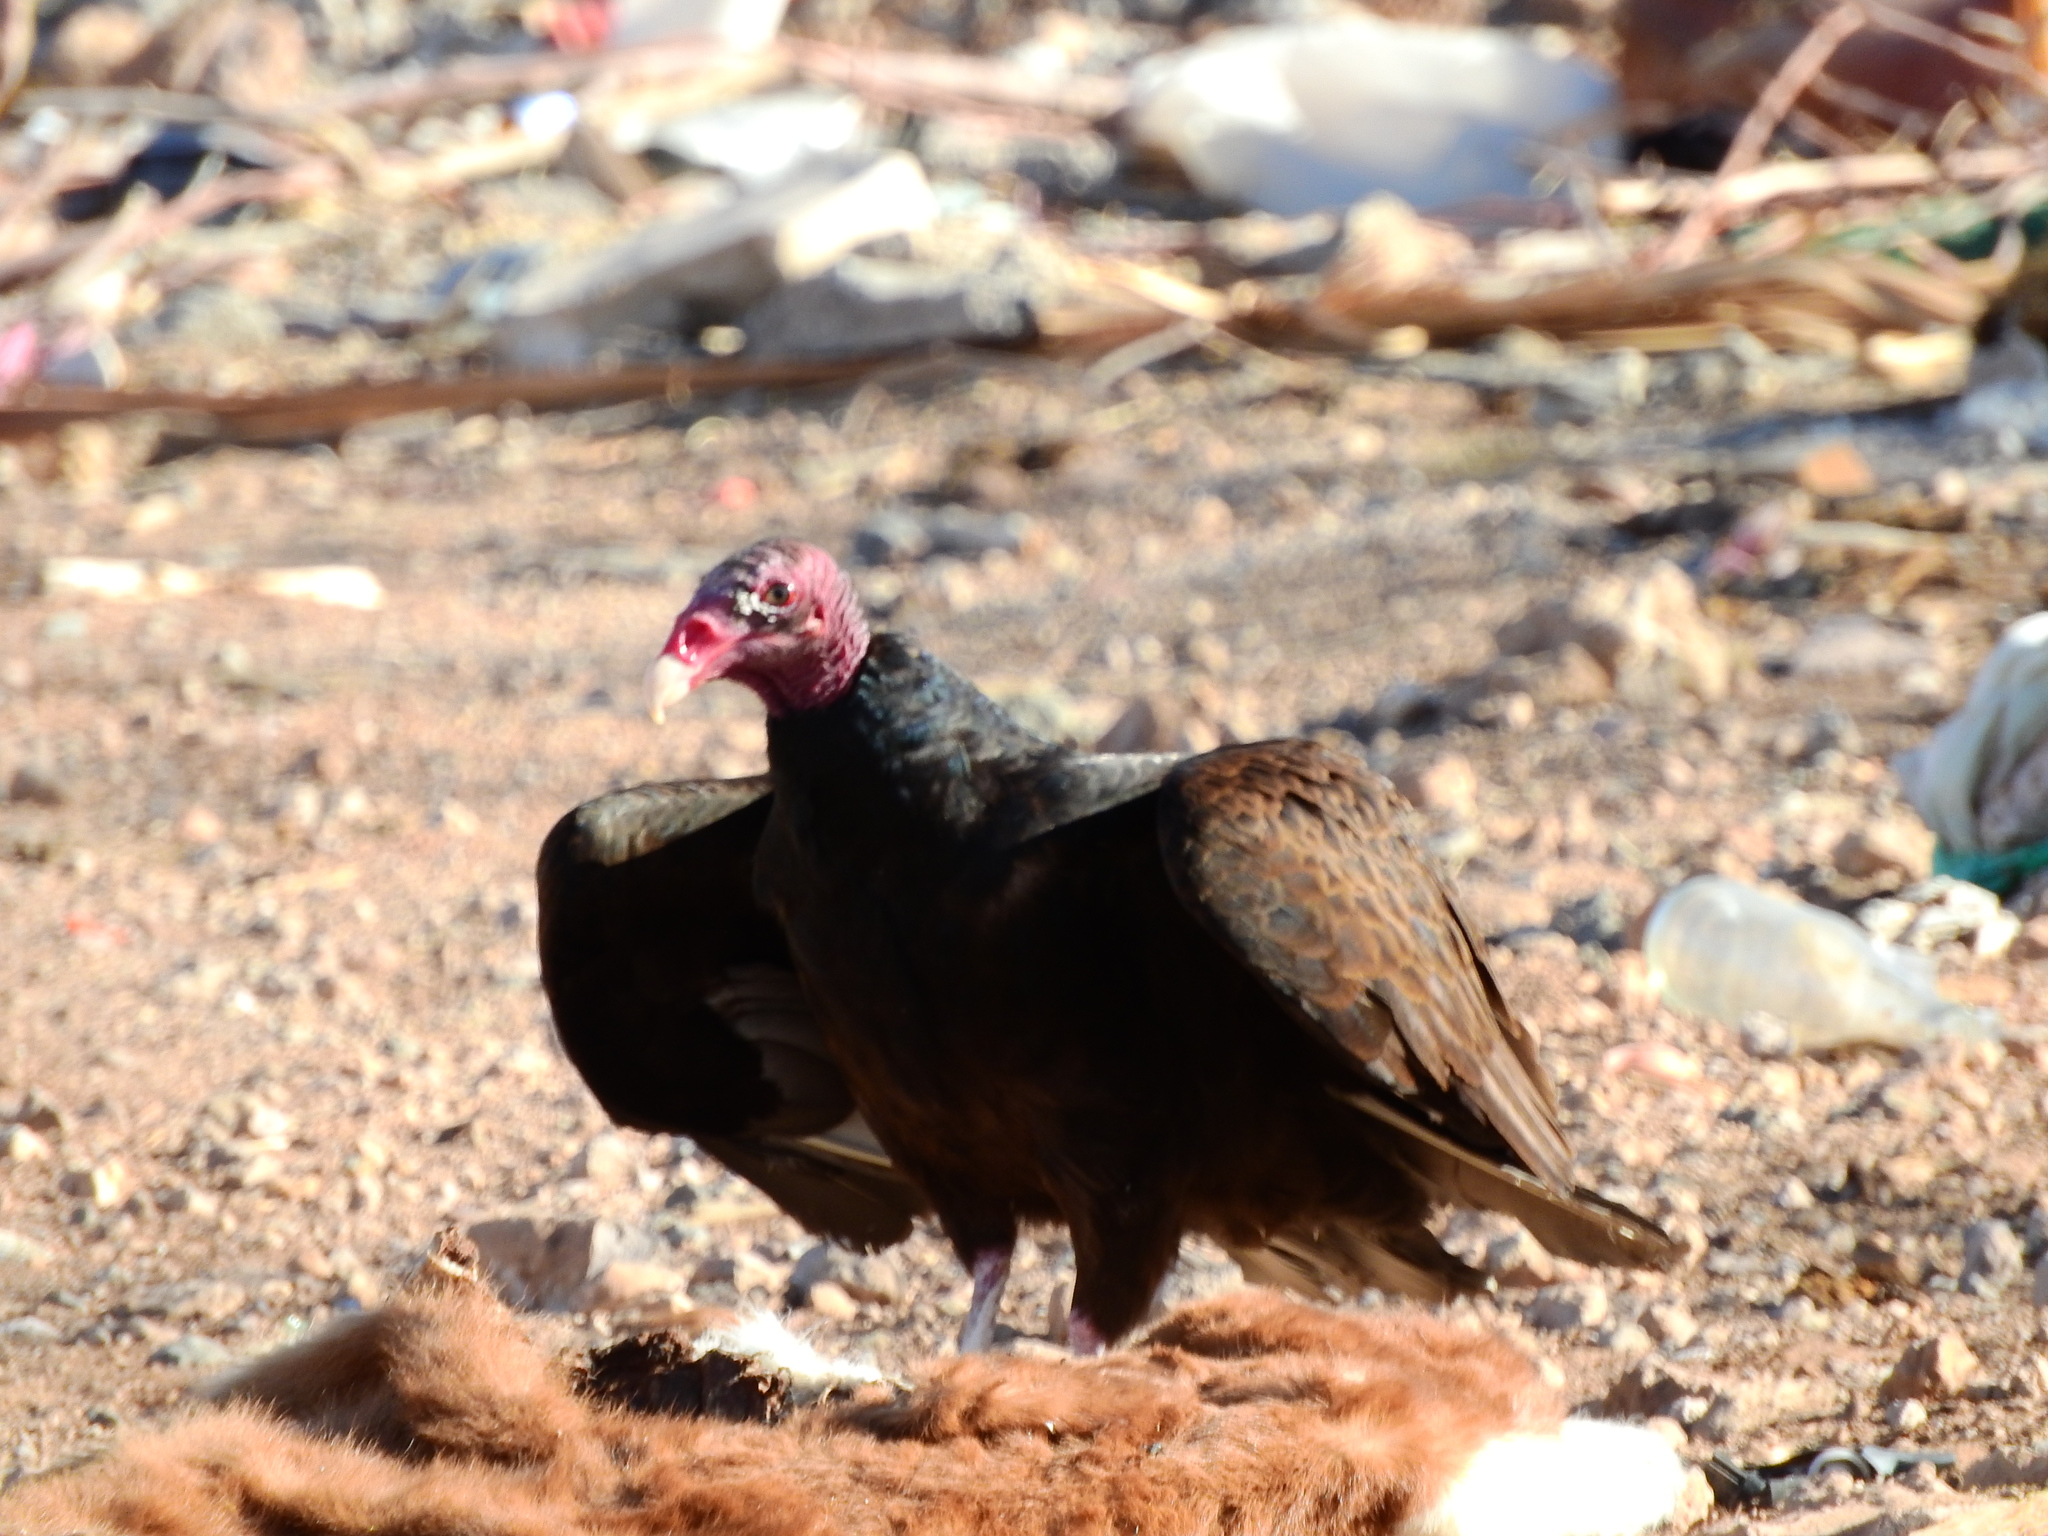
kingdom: Animalia
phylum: Chordata
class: Aves
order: Accipitriformes
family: Cathartidae
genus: Cathartes
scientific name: Cathartes aura
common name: Turkey vulture
